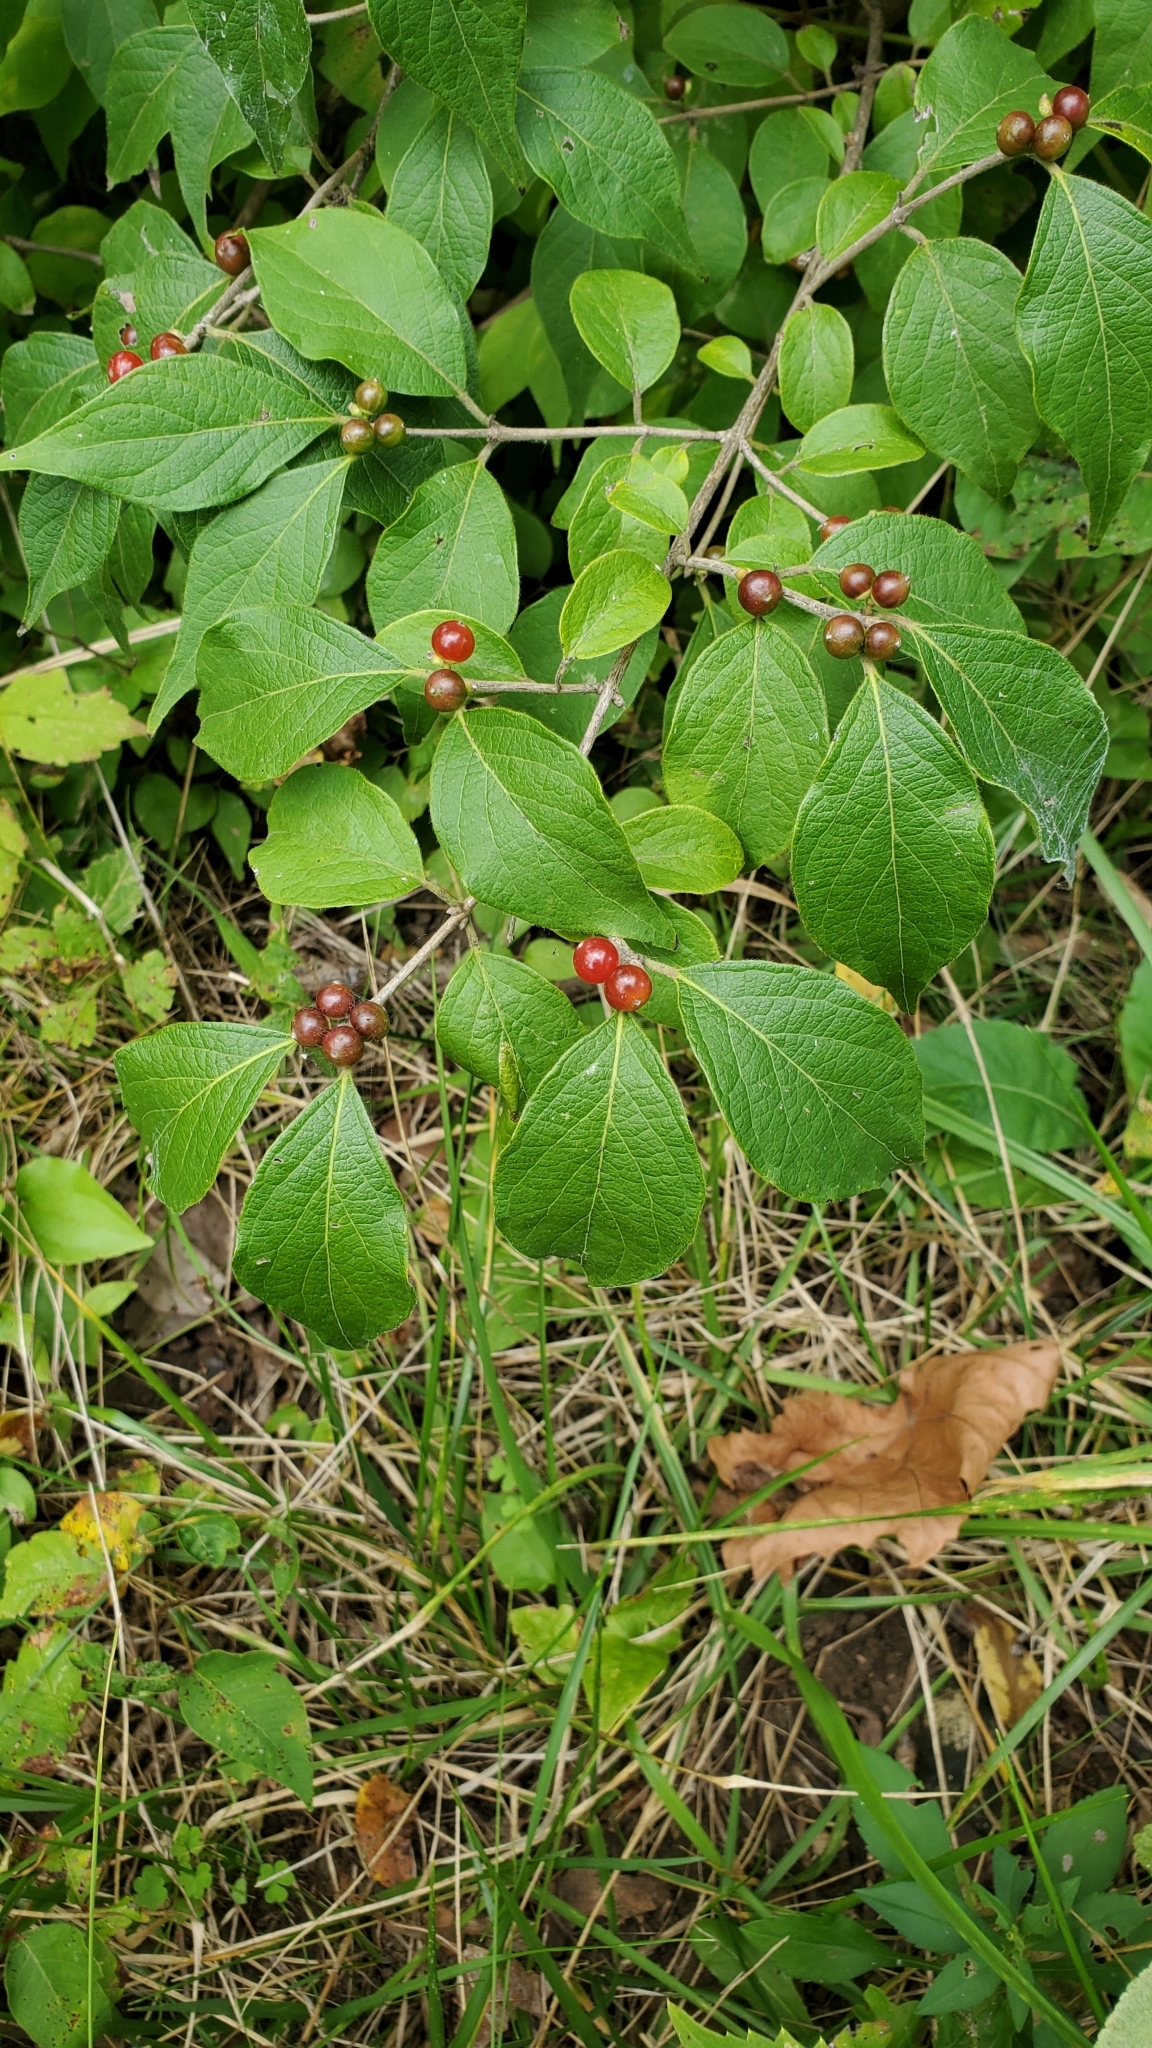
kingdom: Plantae
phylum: Tracheophyta
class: Magnoliopsida
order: Dipsacales
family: Caprifoliaceae
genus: Lonicera
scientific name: Lonicera maackii
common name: Amur honeysuckle
